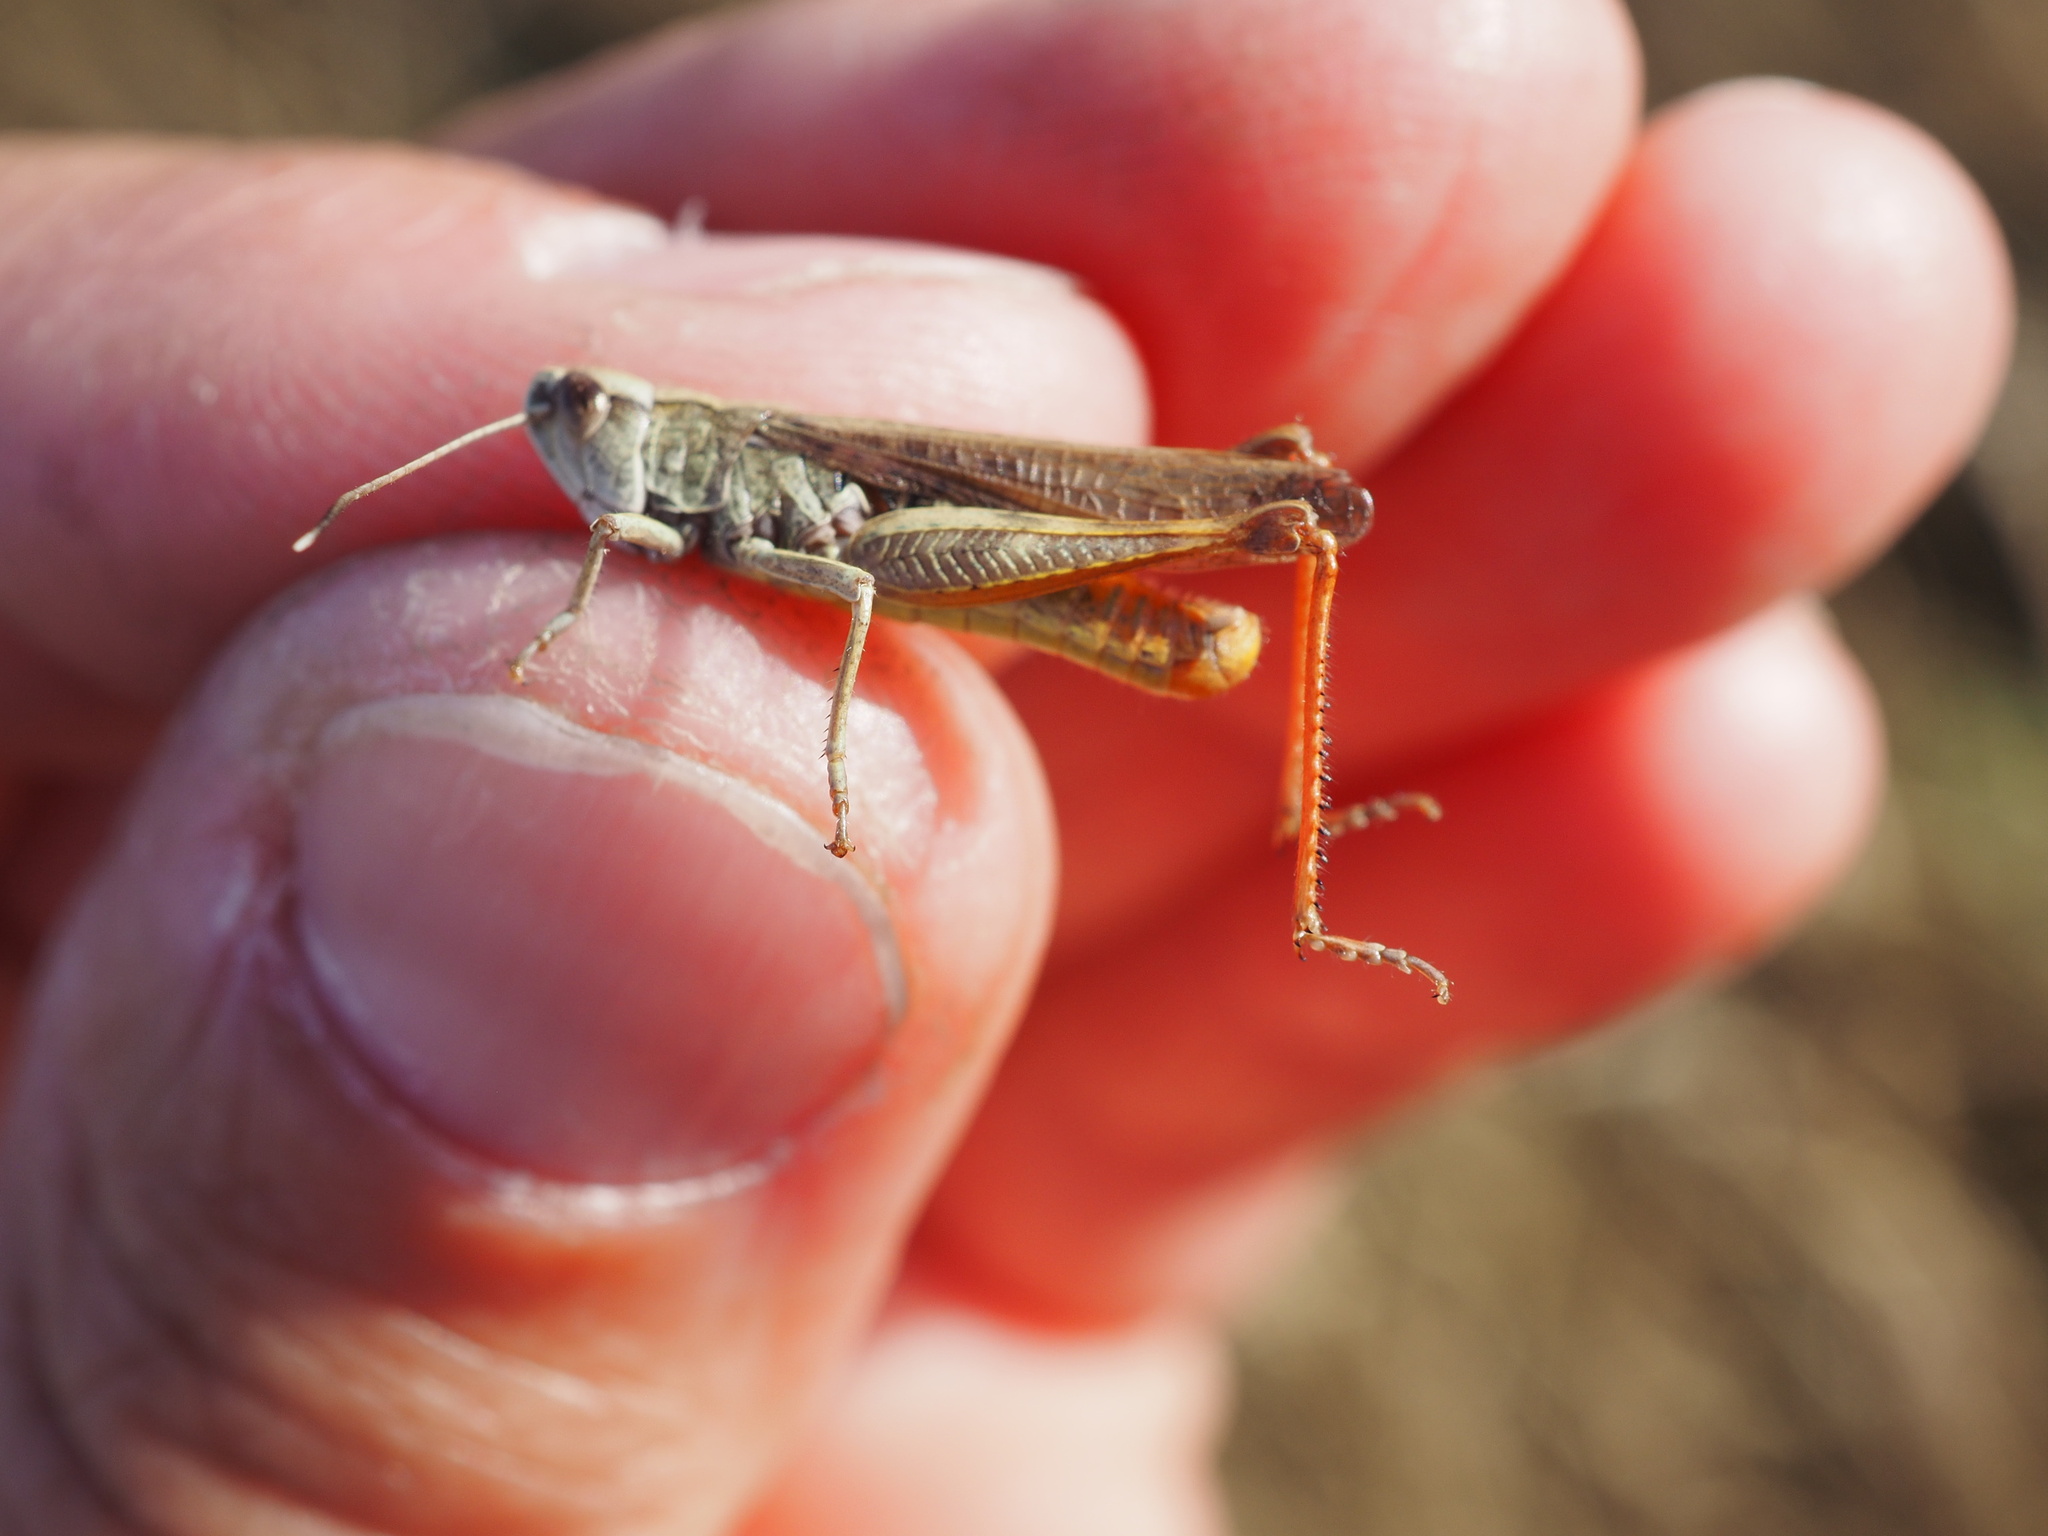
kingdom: Animalia
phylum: Arthropoda
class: Insecta
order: Orthoptera
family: Acrididae
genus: Gomphocerippus
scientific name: Gomphocerippus rufus
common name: Rufous grasshopper
